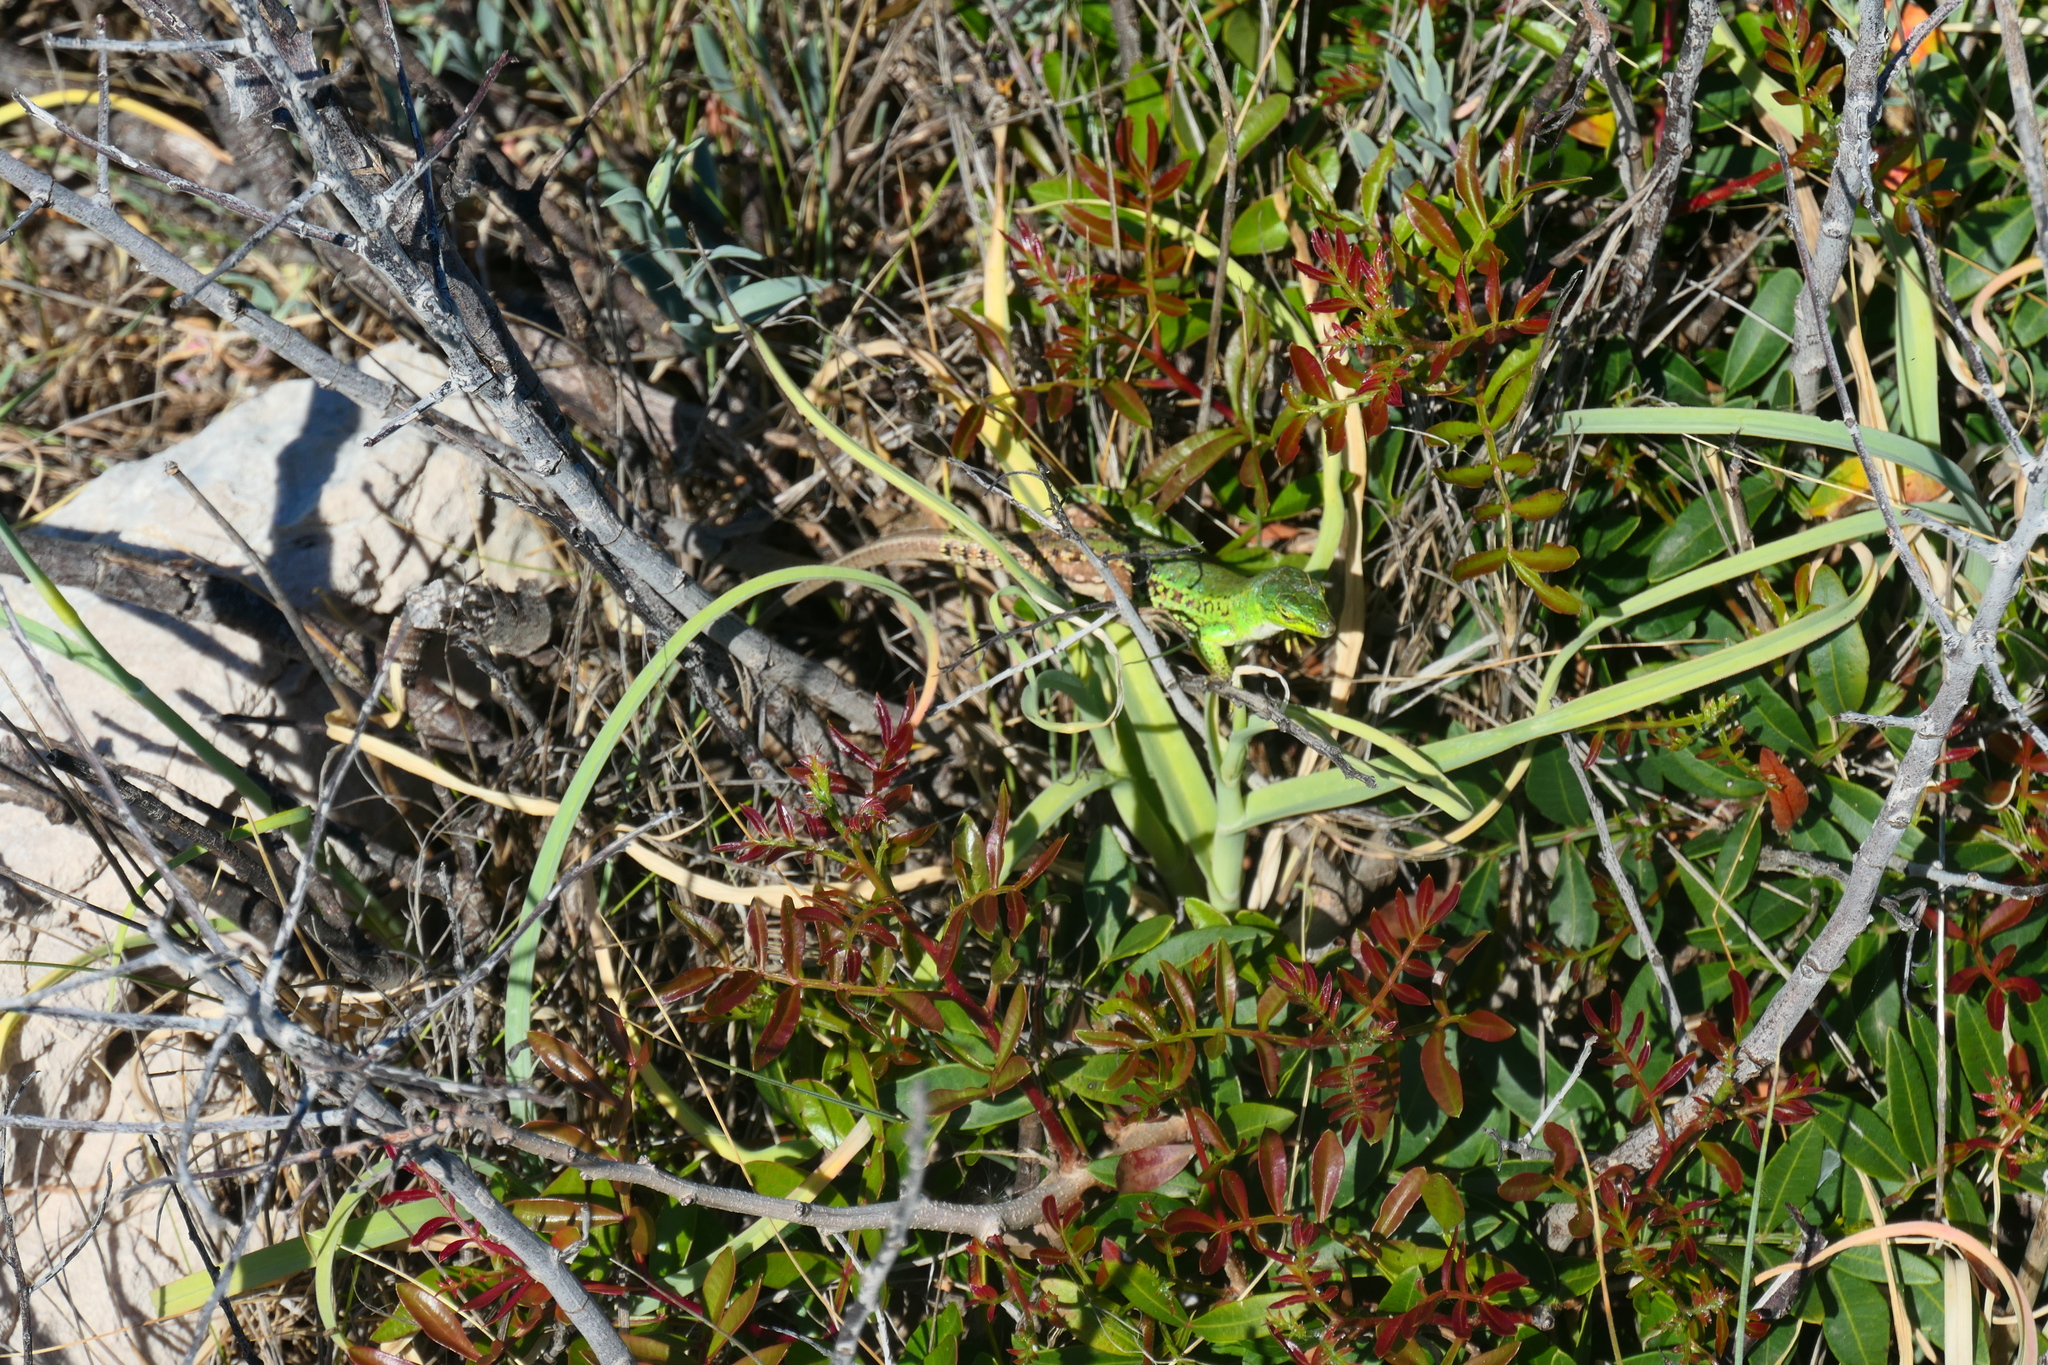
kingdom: Animalia
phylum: Chordata
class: Squamata
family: Lacertidae
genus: Podarcis
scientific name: Podarcis siculus
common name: Italian wall lizard
